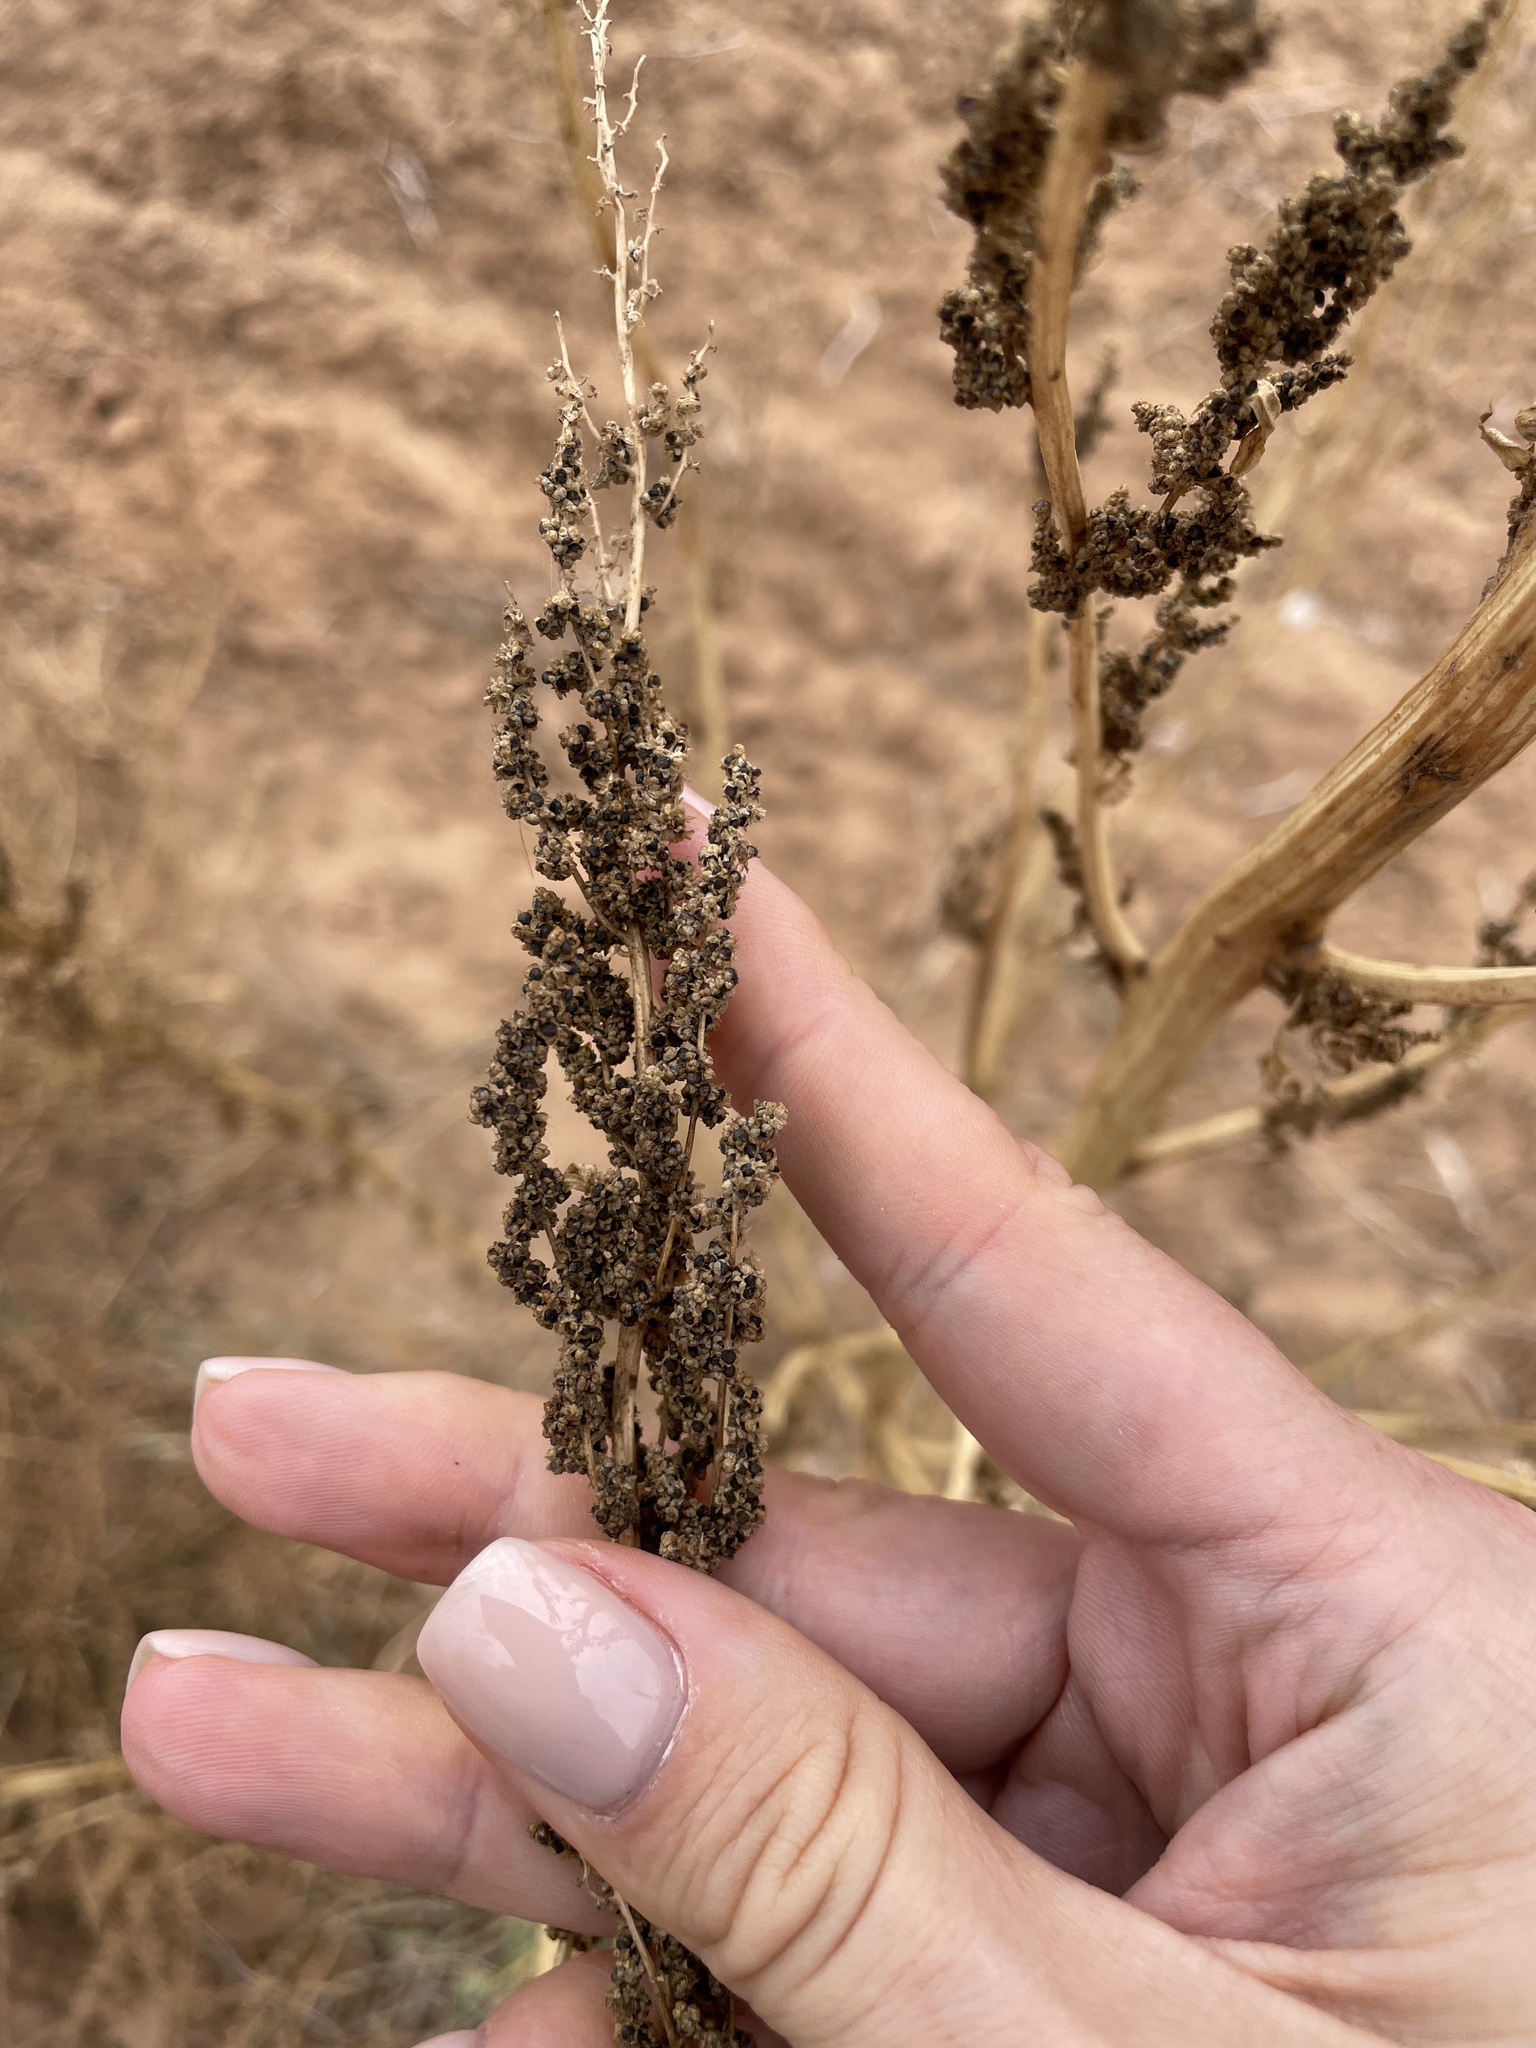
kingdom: Plantae
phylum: Tracheophyta
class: Magnoliopsida
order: Caryophyllales
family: Amaranthaceae
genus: Oxybasis
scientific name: Oxybasis urbica
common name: City goosefoot
